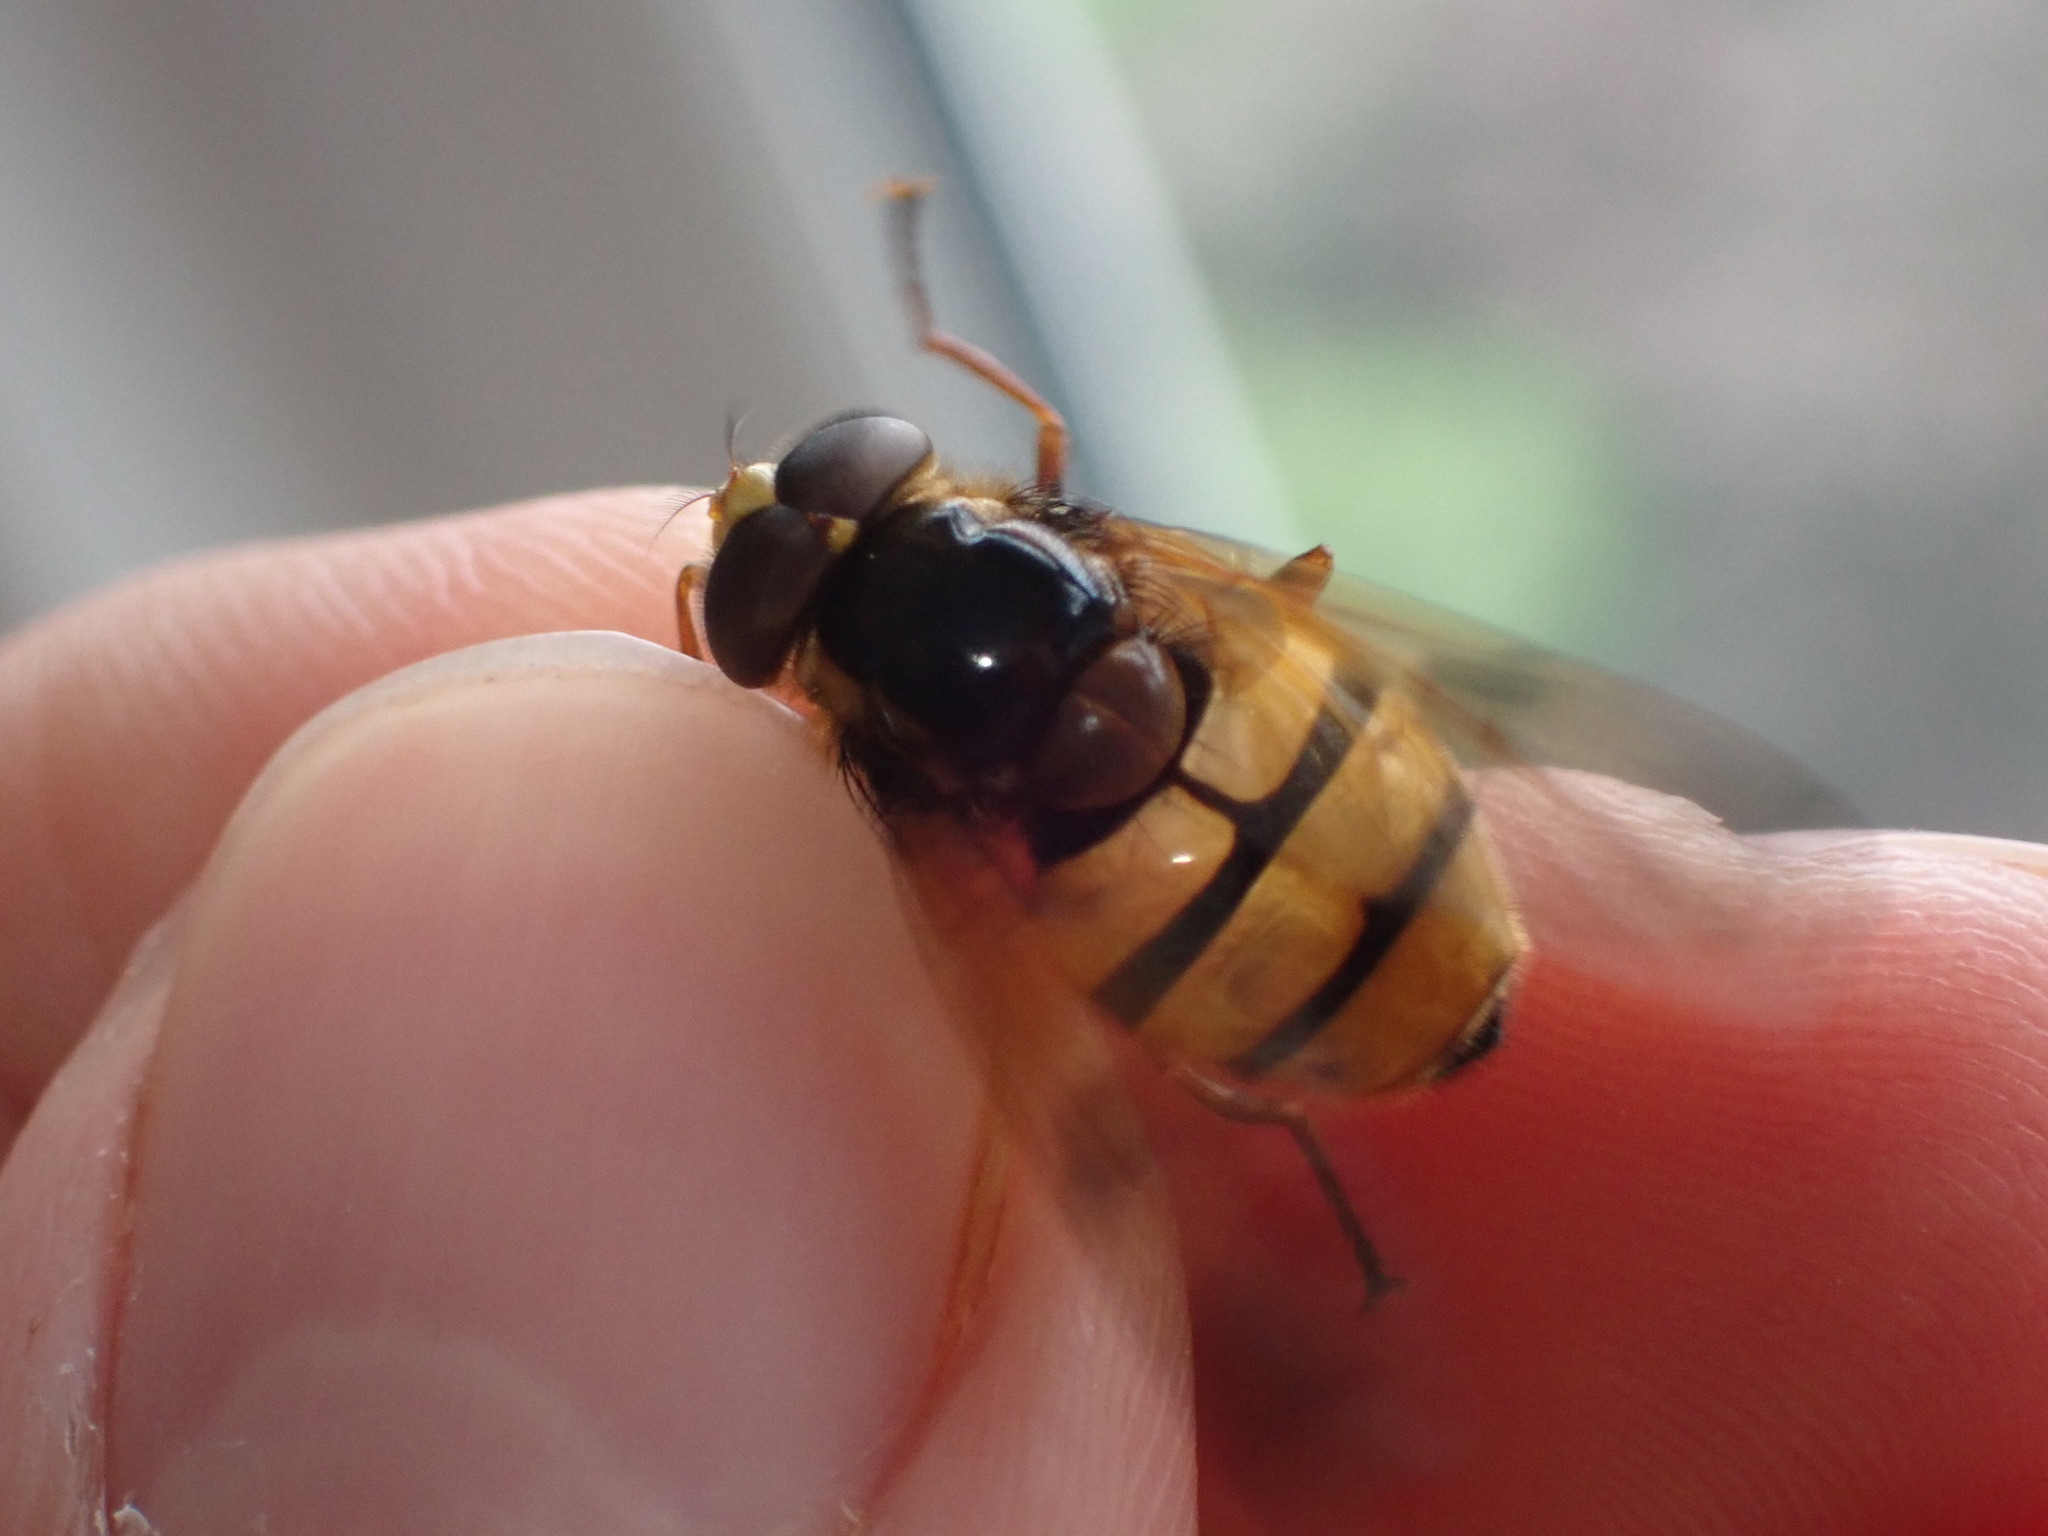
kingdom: Animalia
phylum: Arthropoda
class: Insecta
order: Diptera
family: Syrphidae
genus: Volucella
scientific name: Volucella inanis
